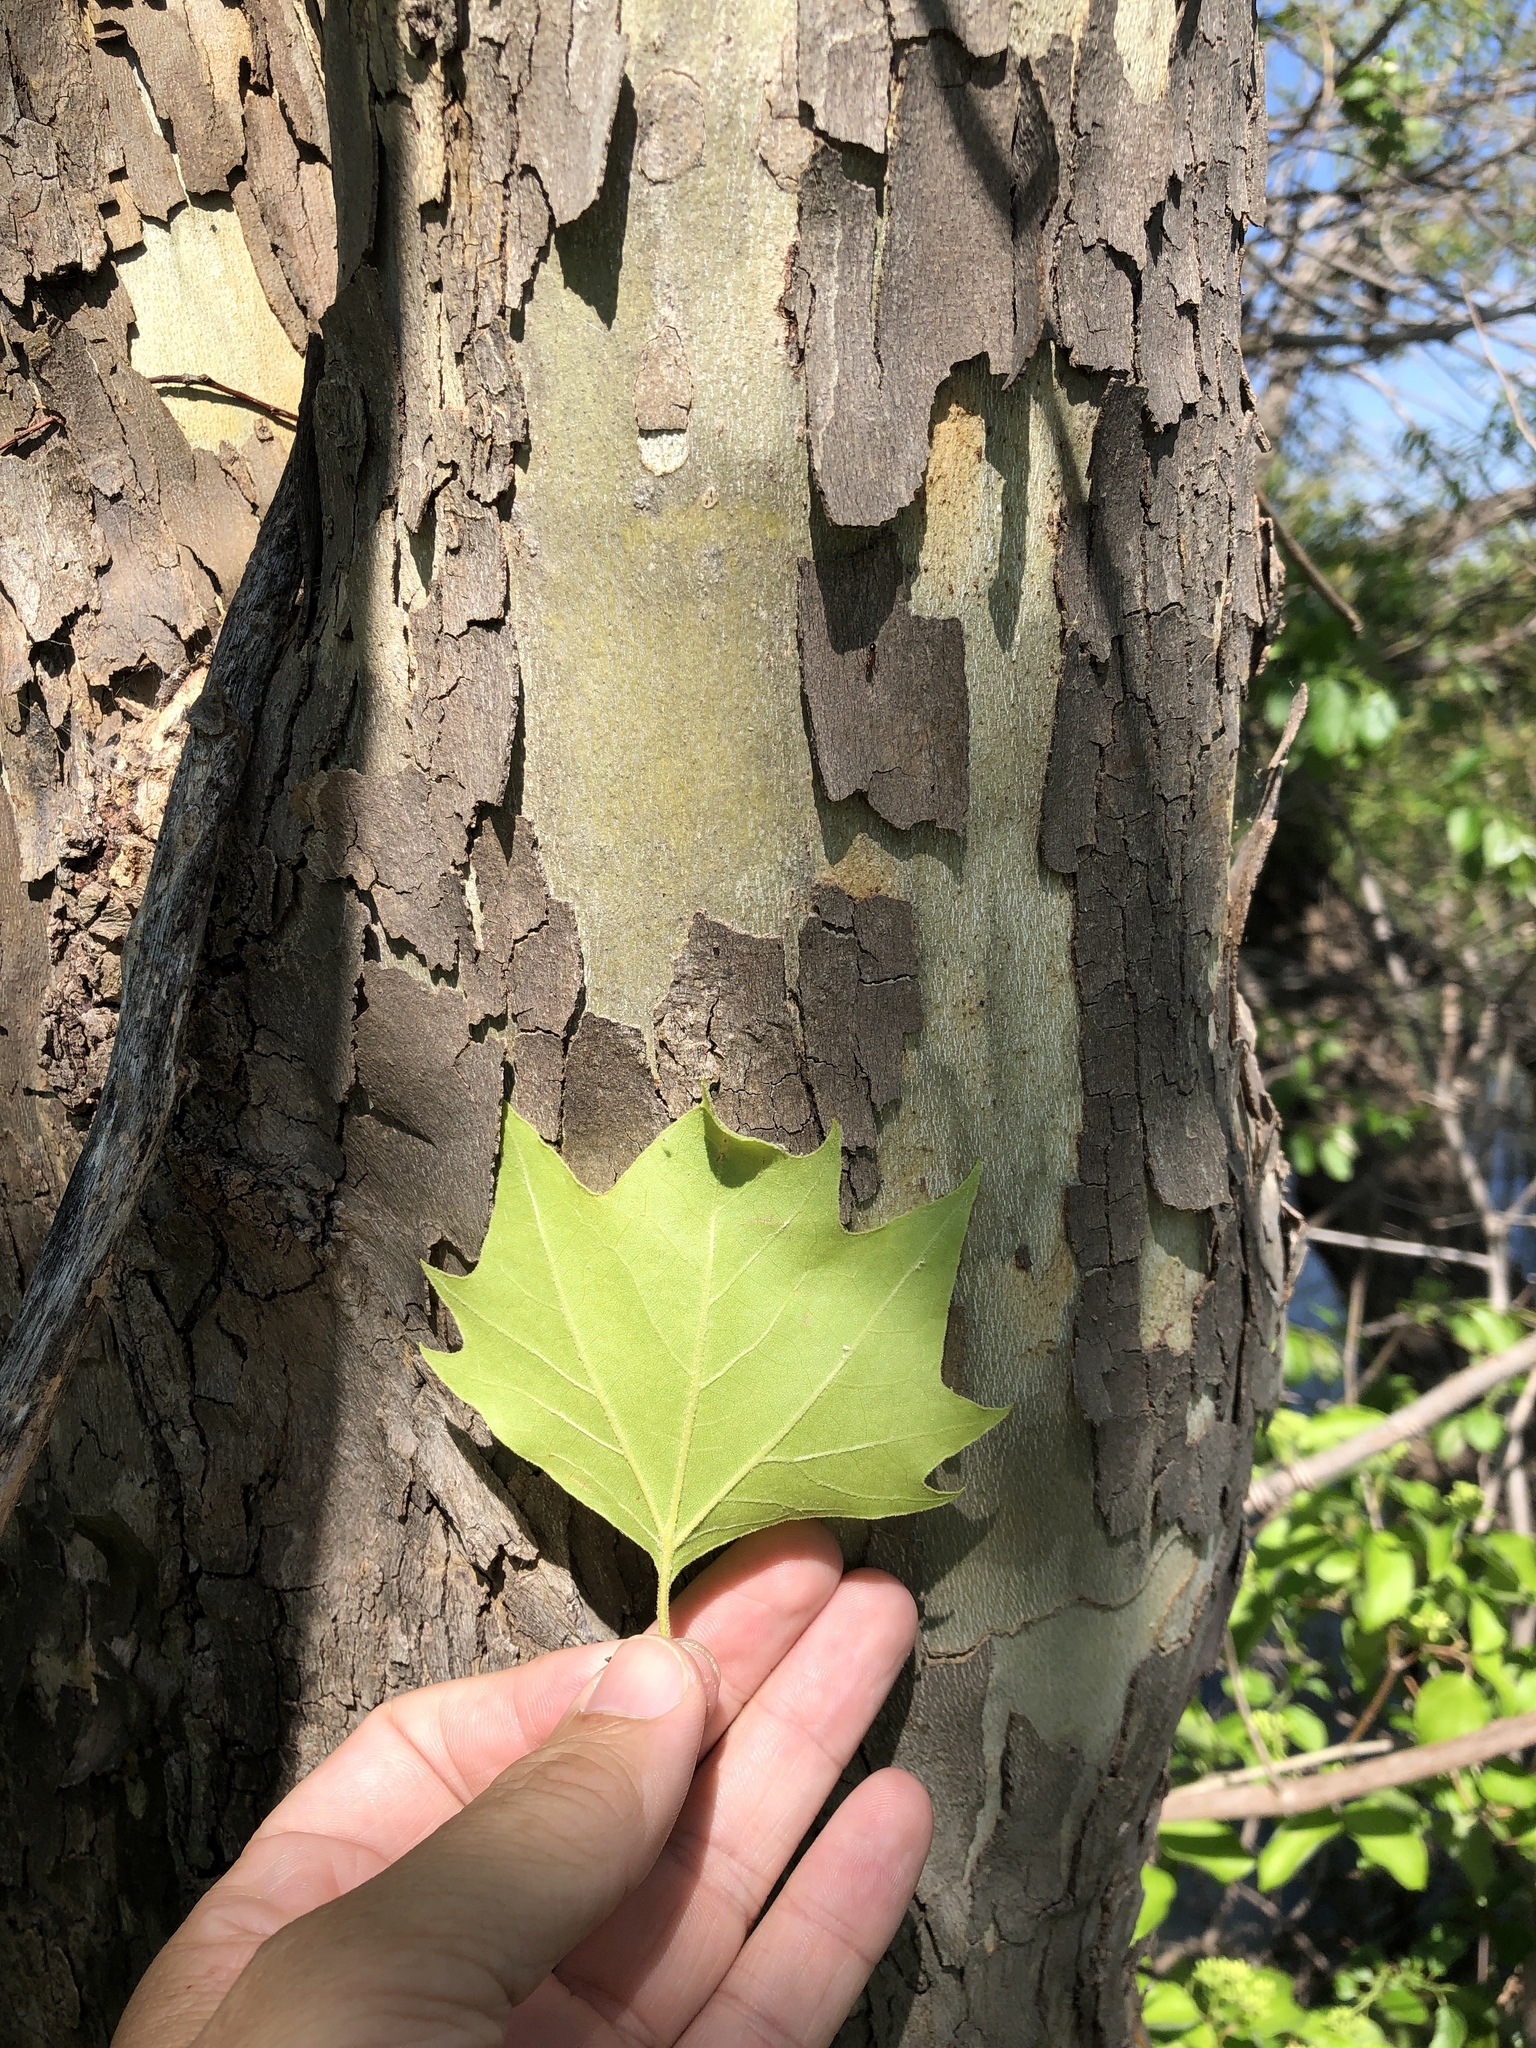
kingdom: Plantae
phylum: Tracheophyta
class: Magnoliopsida
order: Proteales
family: Platanaceae
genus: Platanus
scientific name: Platanus occidentalis
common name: American sycamore
